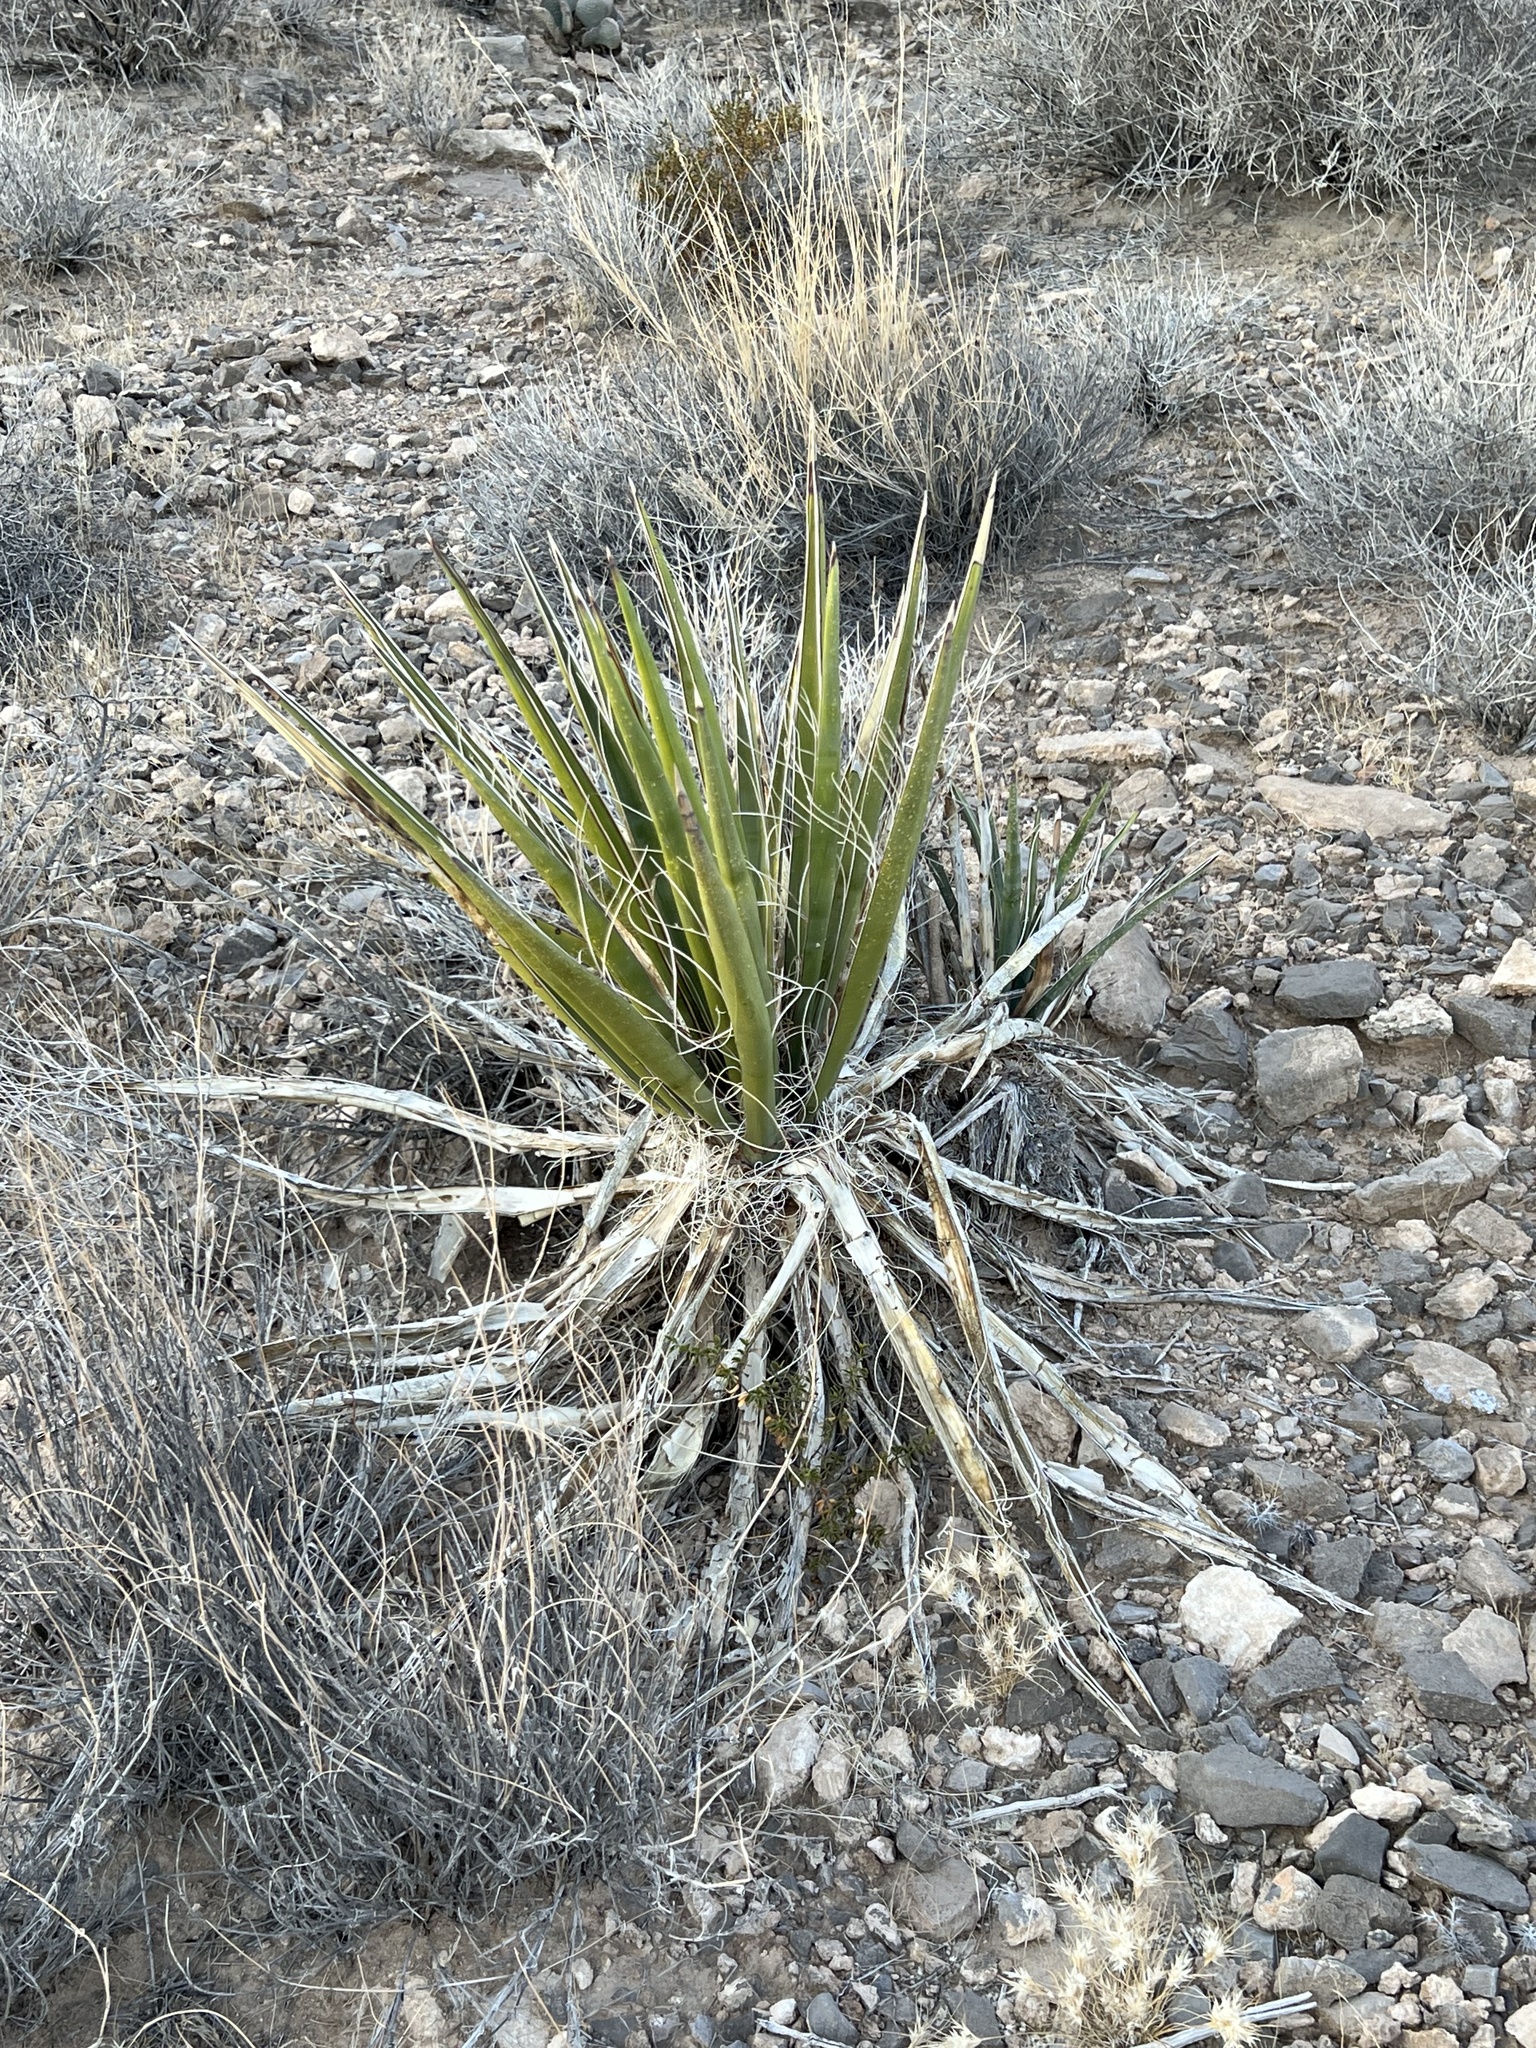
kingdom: Plantae
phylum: Tracheophyta
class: Liliopsida
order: Asparagales
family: Asparagaceae
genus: Yucca
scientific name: Yucca schidigera
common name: Mojave yucca
